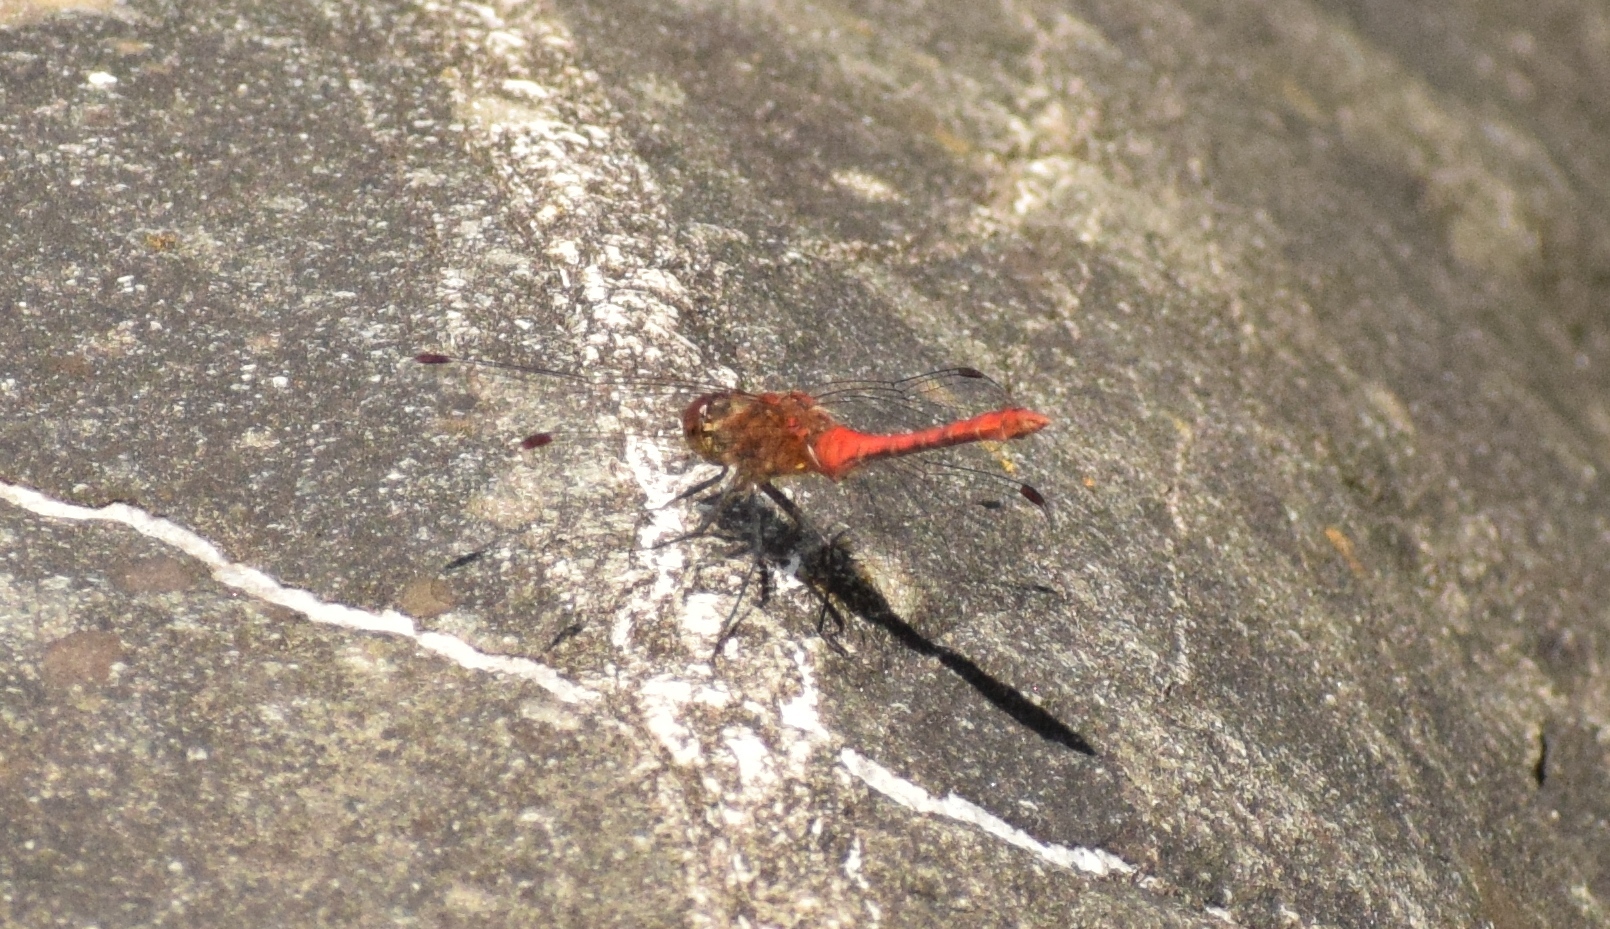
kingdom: Animalia
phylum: Arthropoda
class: Insecta
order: Odonata
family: Libellulidae
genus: Sympetrum
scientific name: Sympetrum sanguineum
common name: Ruddy darter
